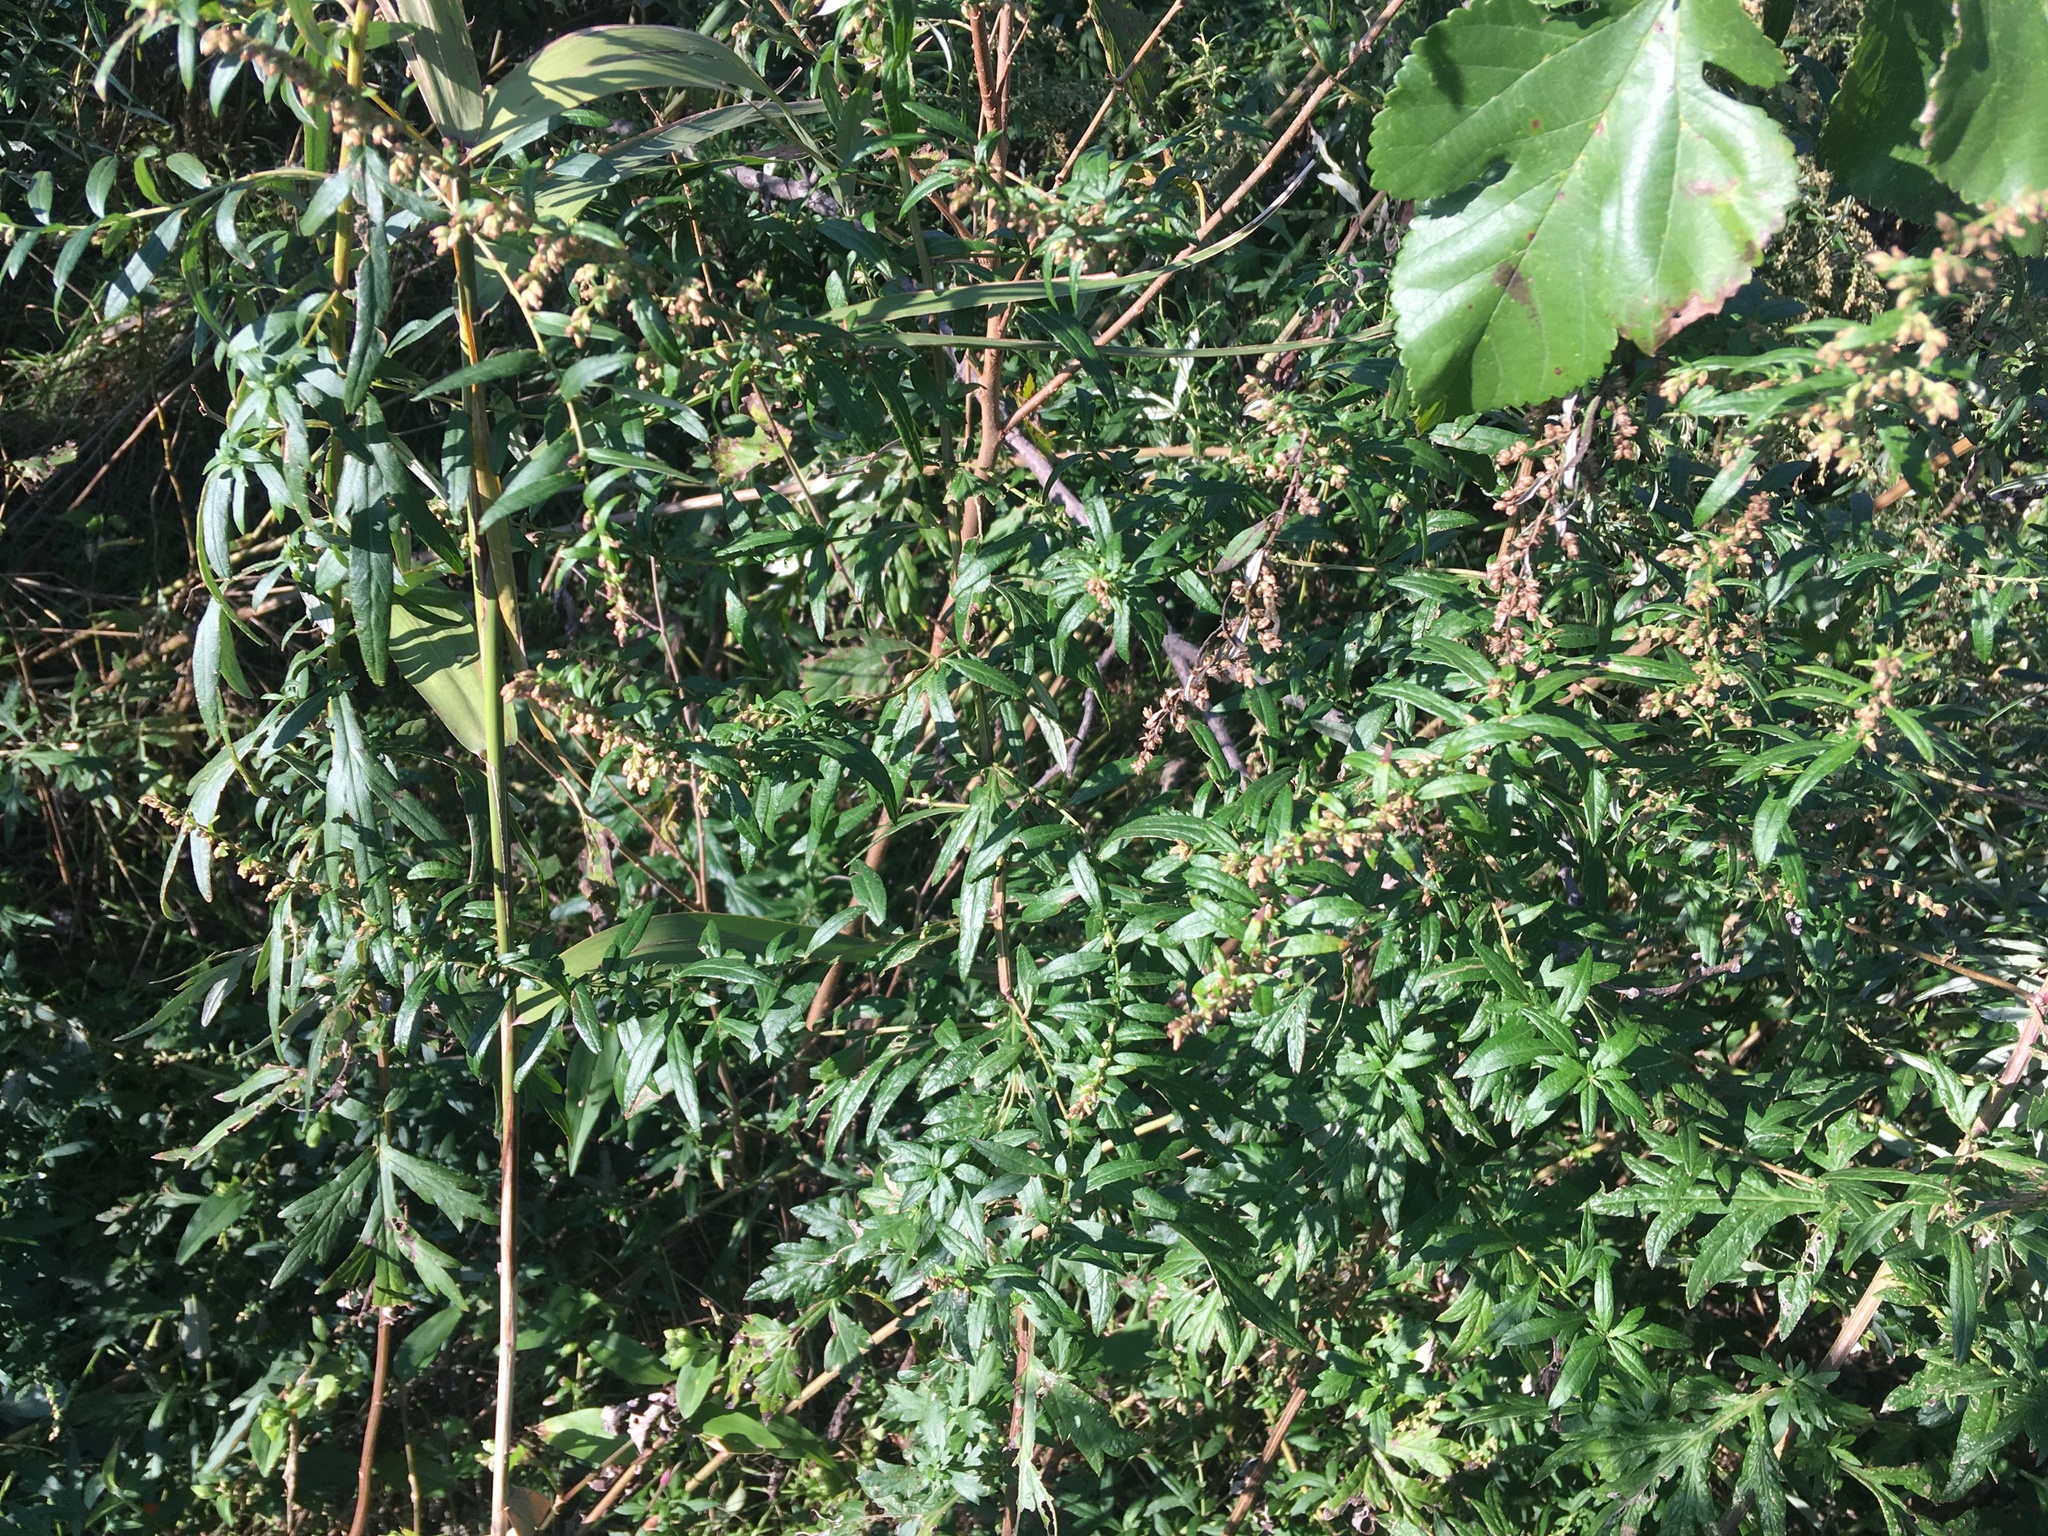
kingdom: Plantae
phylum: Tracheophyta
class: Magnoliopsida
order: Asterales
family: Asteraceae
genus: Artemisia
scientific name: Artemisia vulgaris
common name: Mugwort
